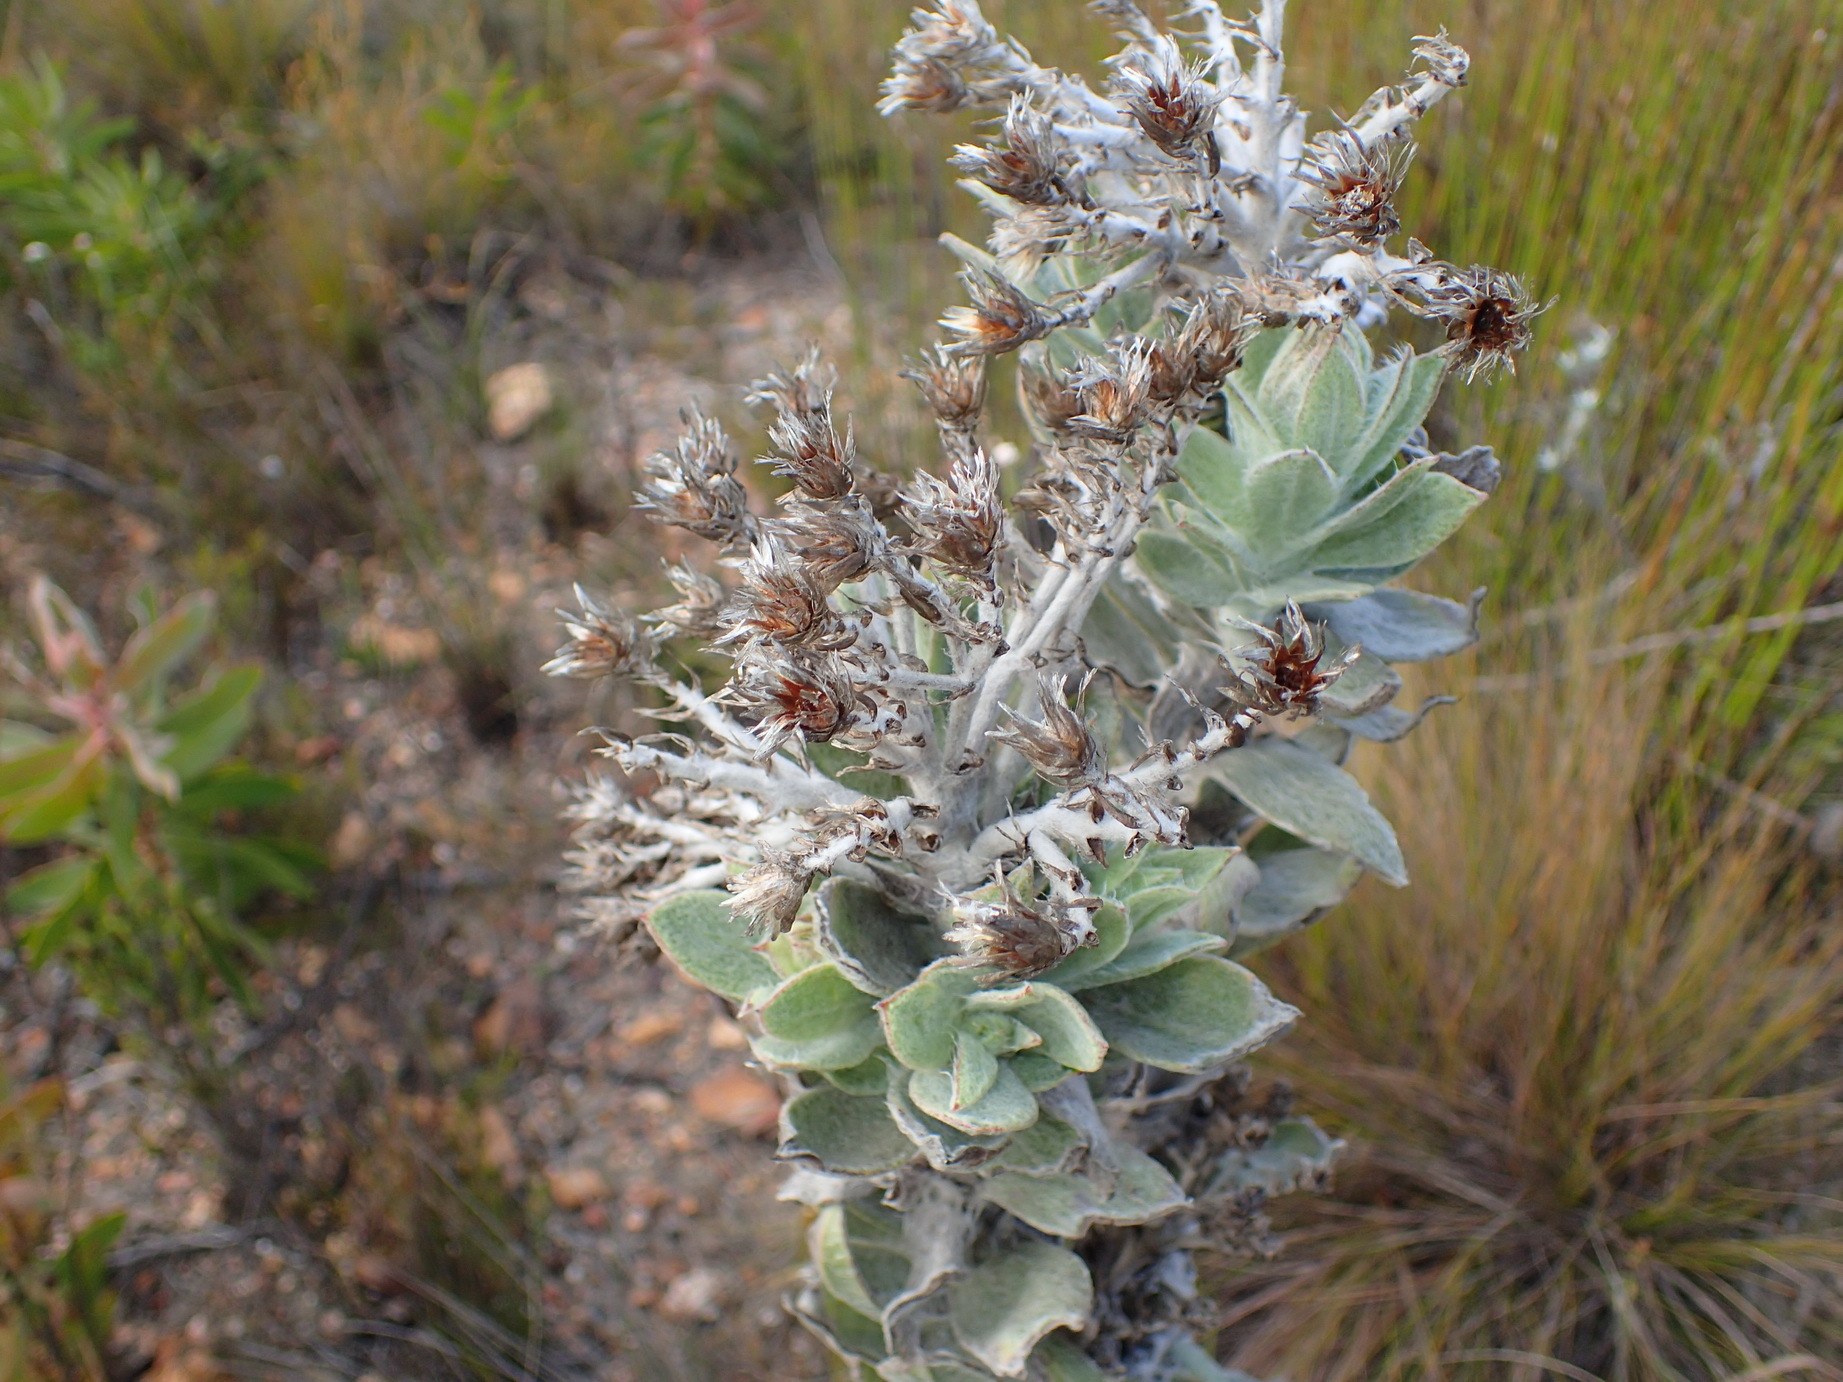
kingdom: Plantae
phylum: Tracheophyta
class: Magnoliopsida
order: Asterales
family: Asteraceae
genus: Syncarpha
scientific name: Syncarpha milleflora
